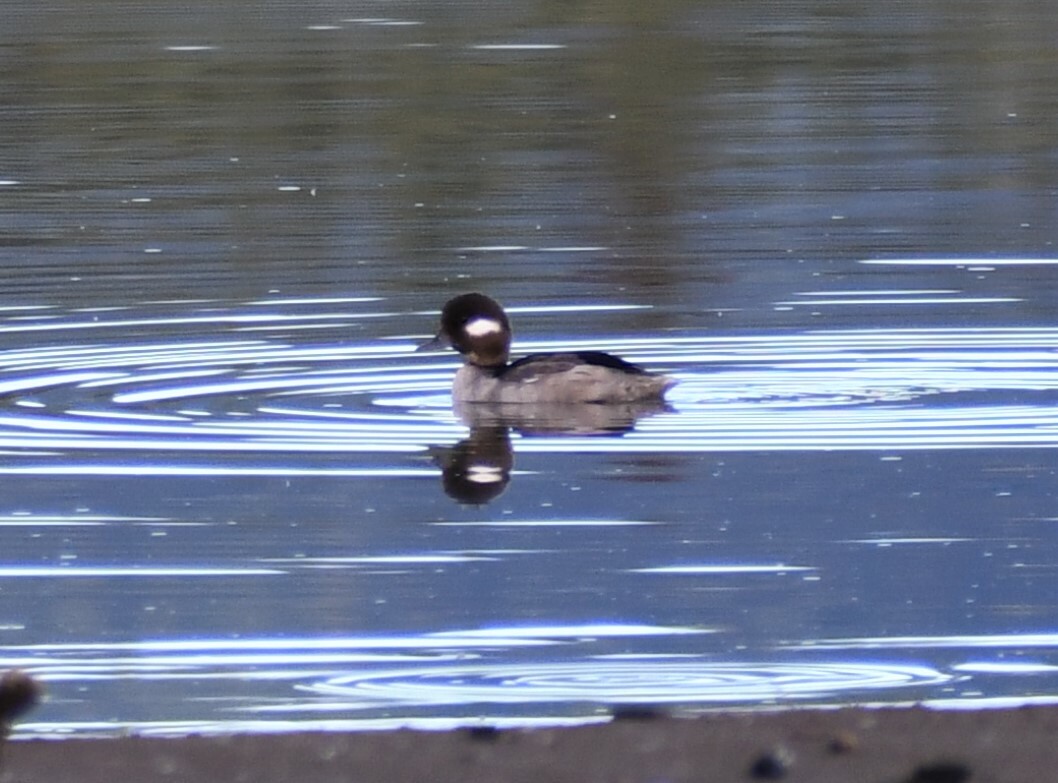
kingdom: Animalia
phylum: Chordata
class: Aves
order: Anseriformes
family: Anatidae
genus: Bucephala
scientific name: Bucephala albeola
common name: Bufflehead
